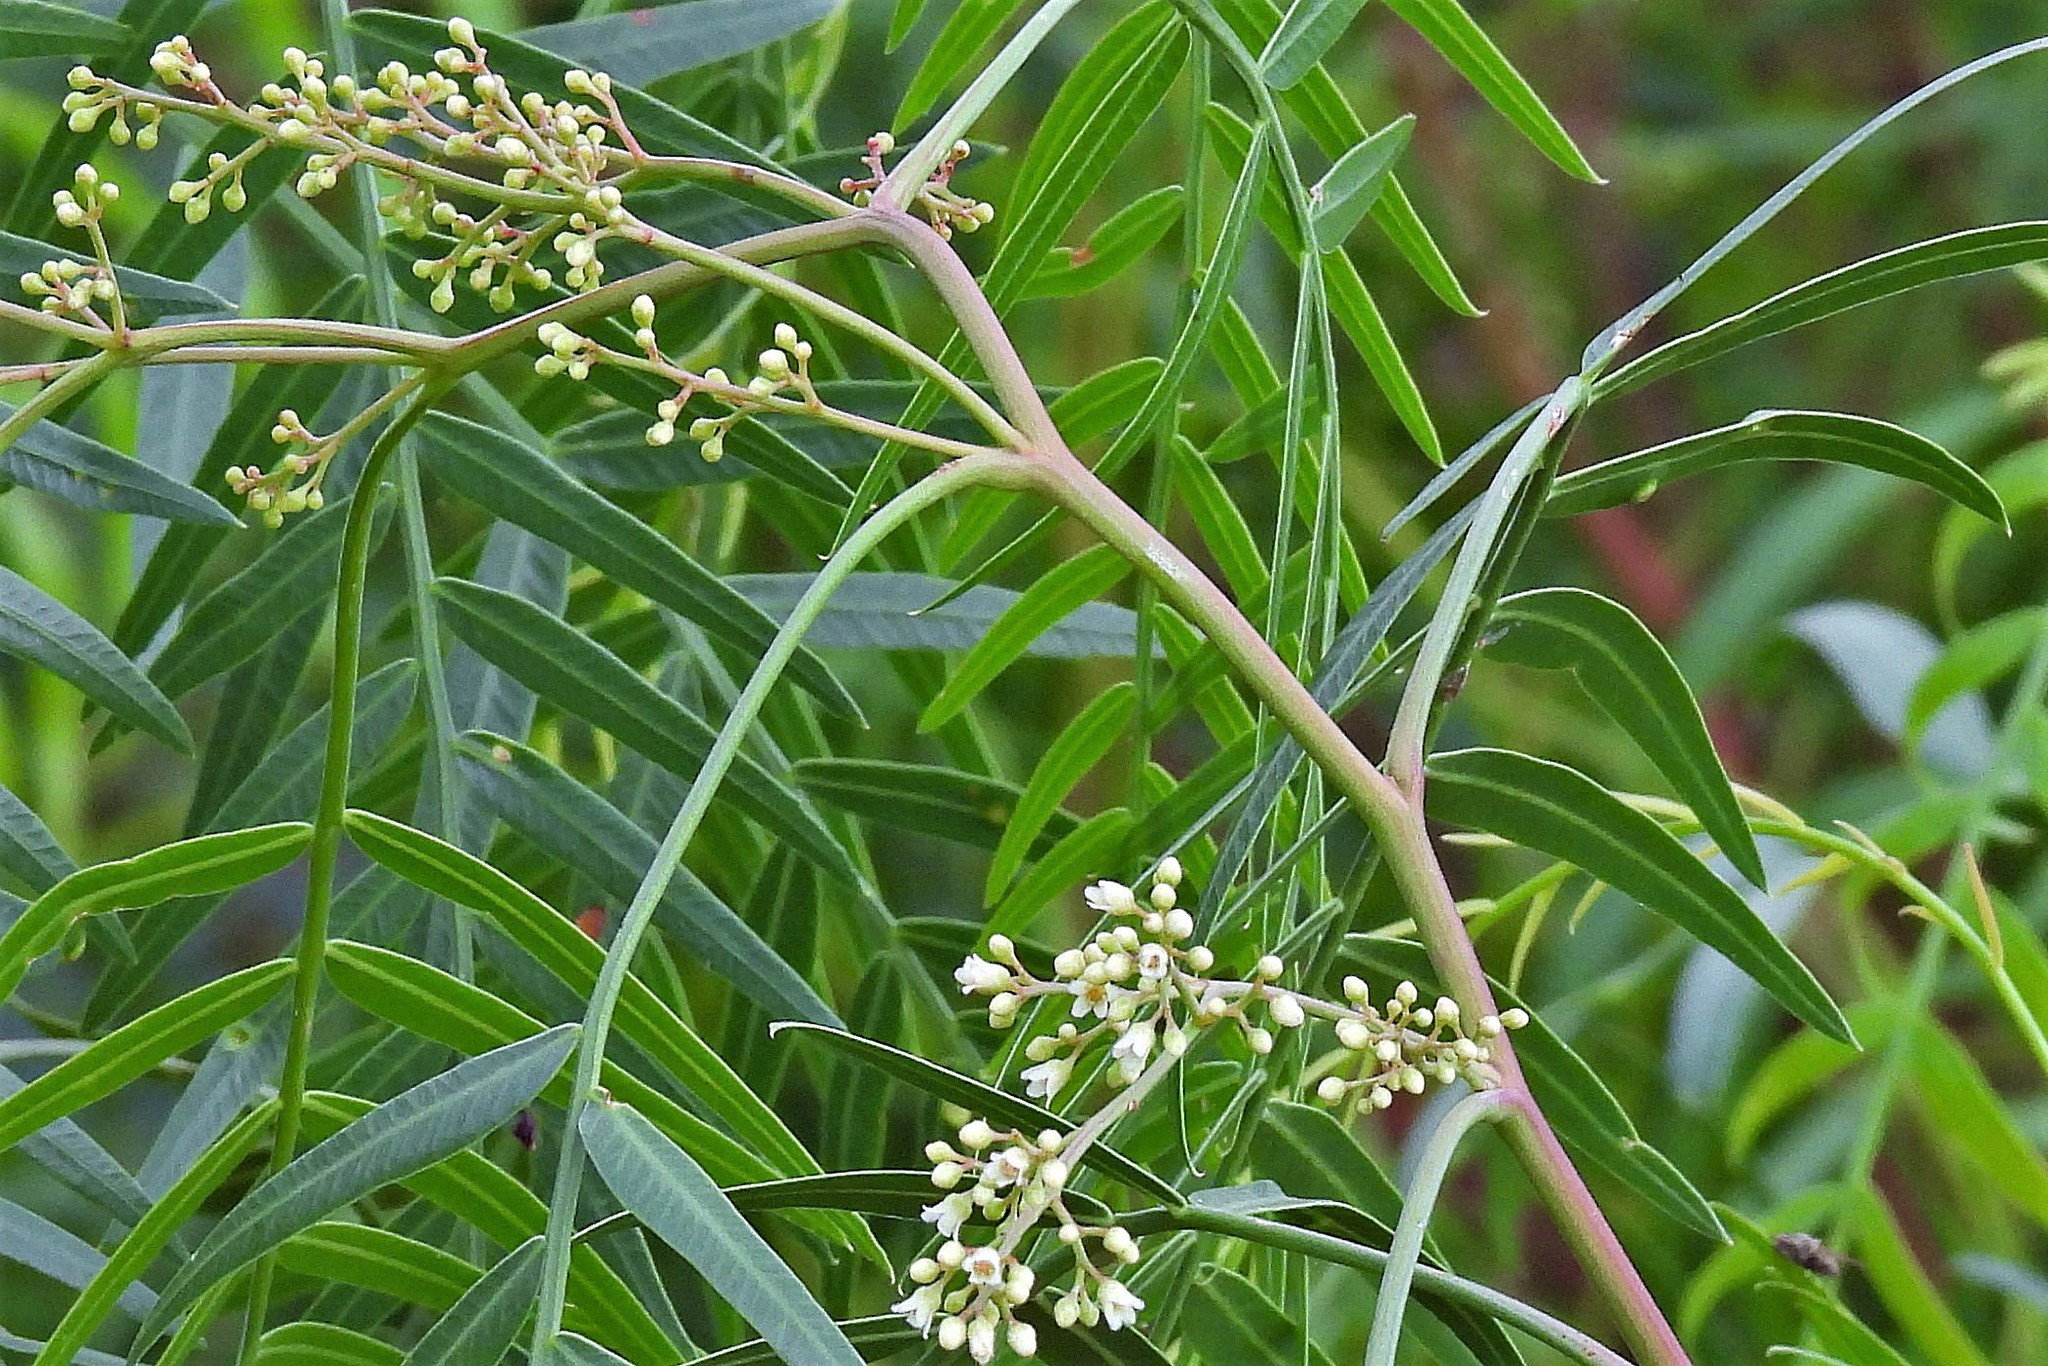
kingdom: Plantae
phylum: Tracheophyta
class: Magnoliopsida
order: Sapindales
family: Anacardiaceae
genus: Schinus
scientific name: Schinus areira
